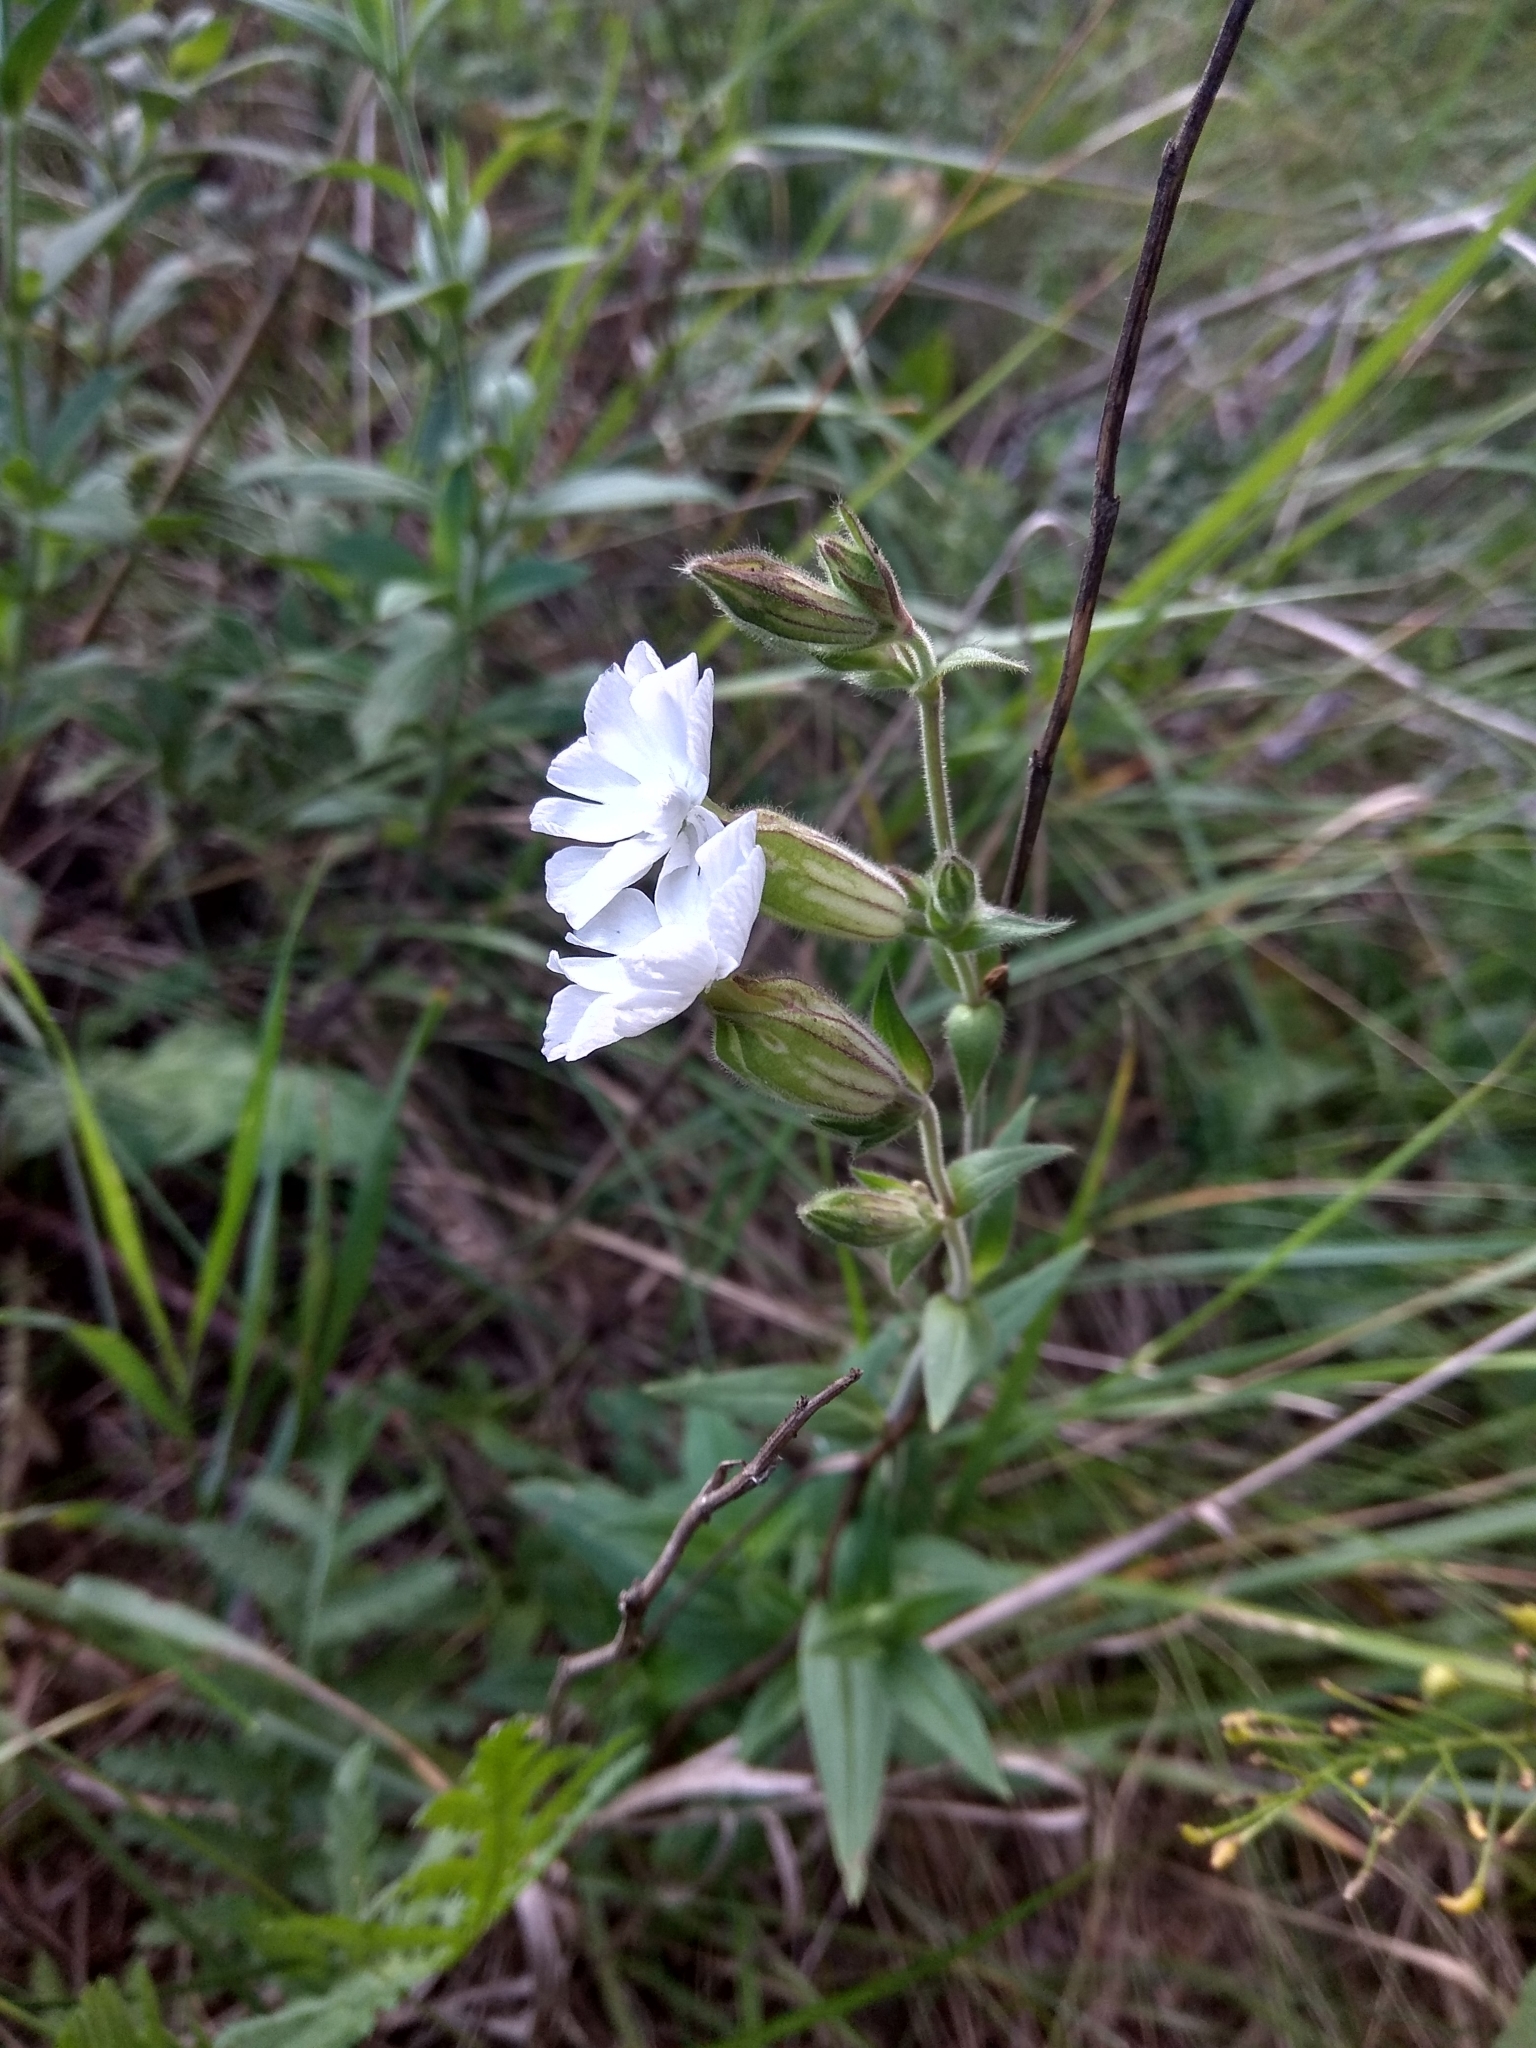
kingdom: Plantae
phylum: Tracheophyta
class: Magnoliopsida
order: Caryophyllales
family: Caryophyllaceae
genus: Silene
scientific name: Silene latifolia
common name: White campion
